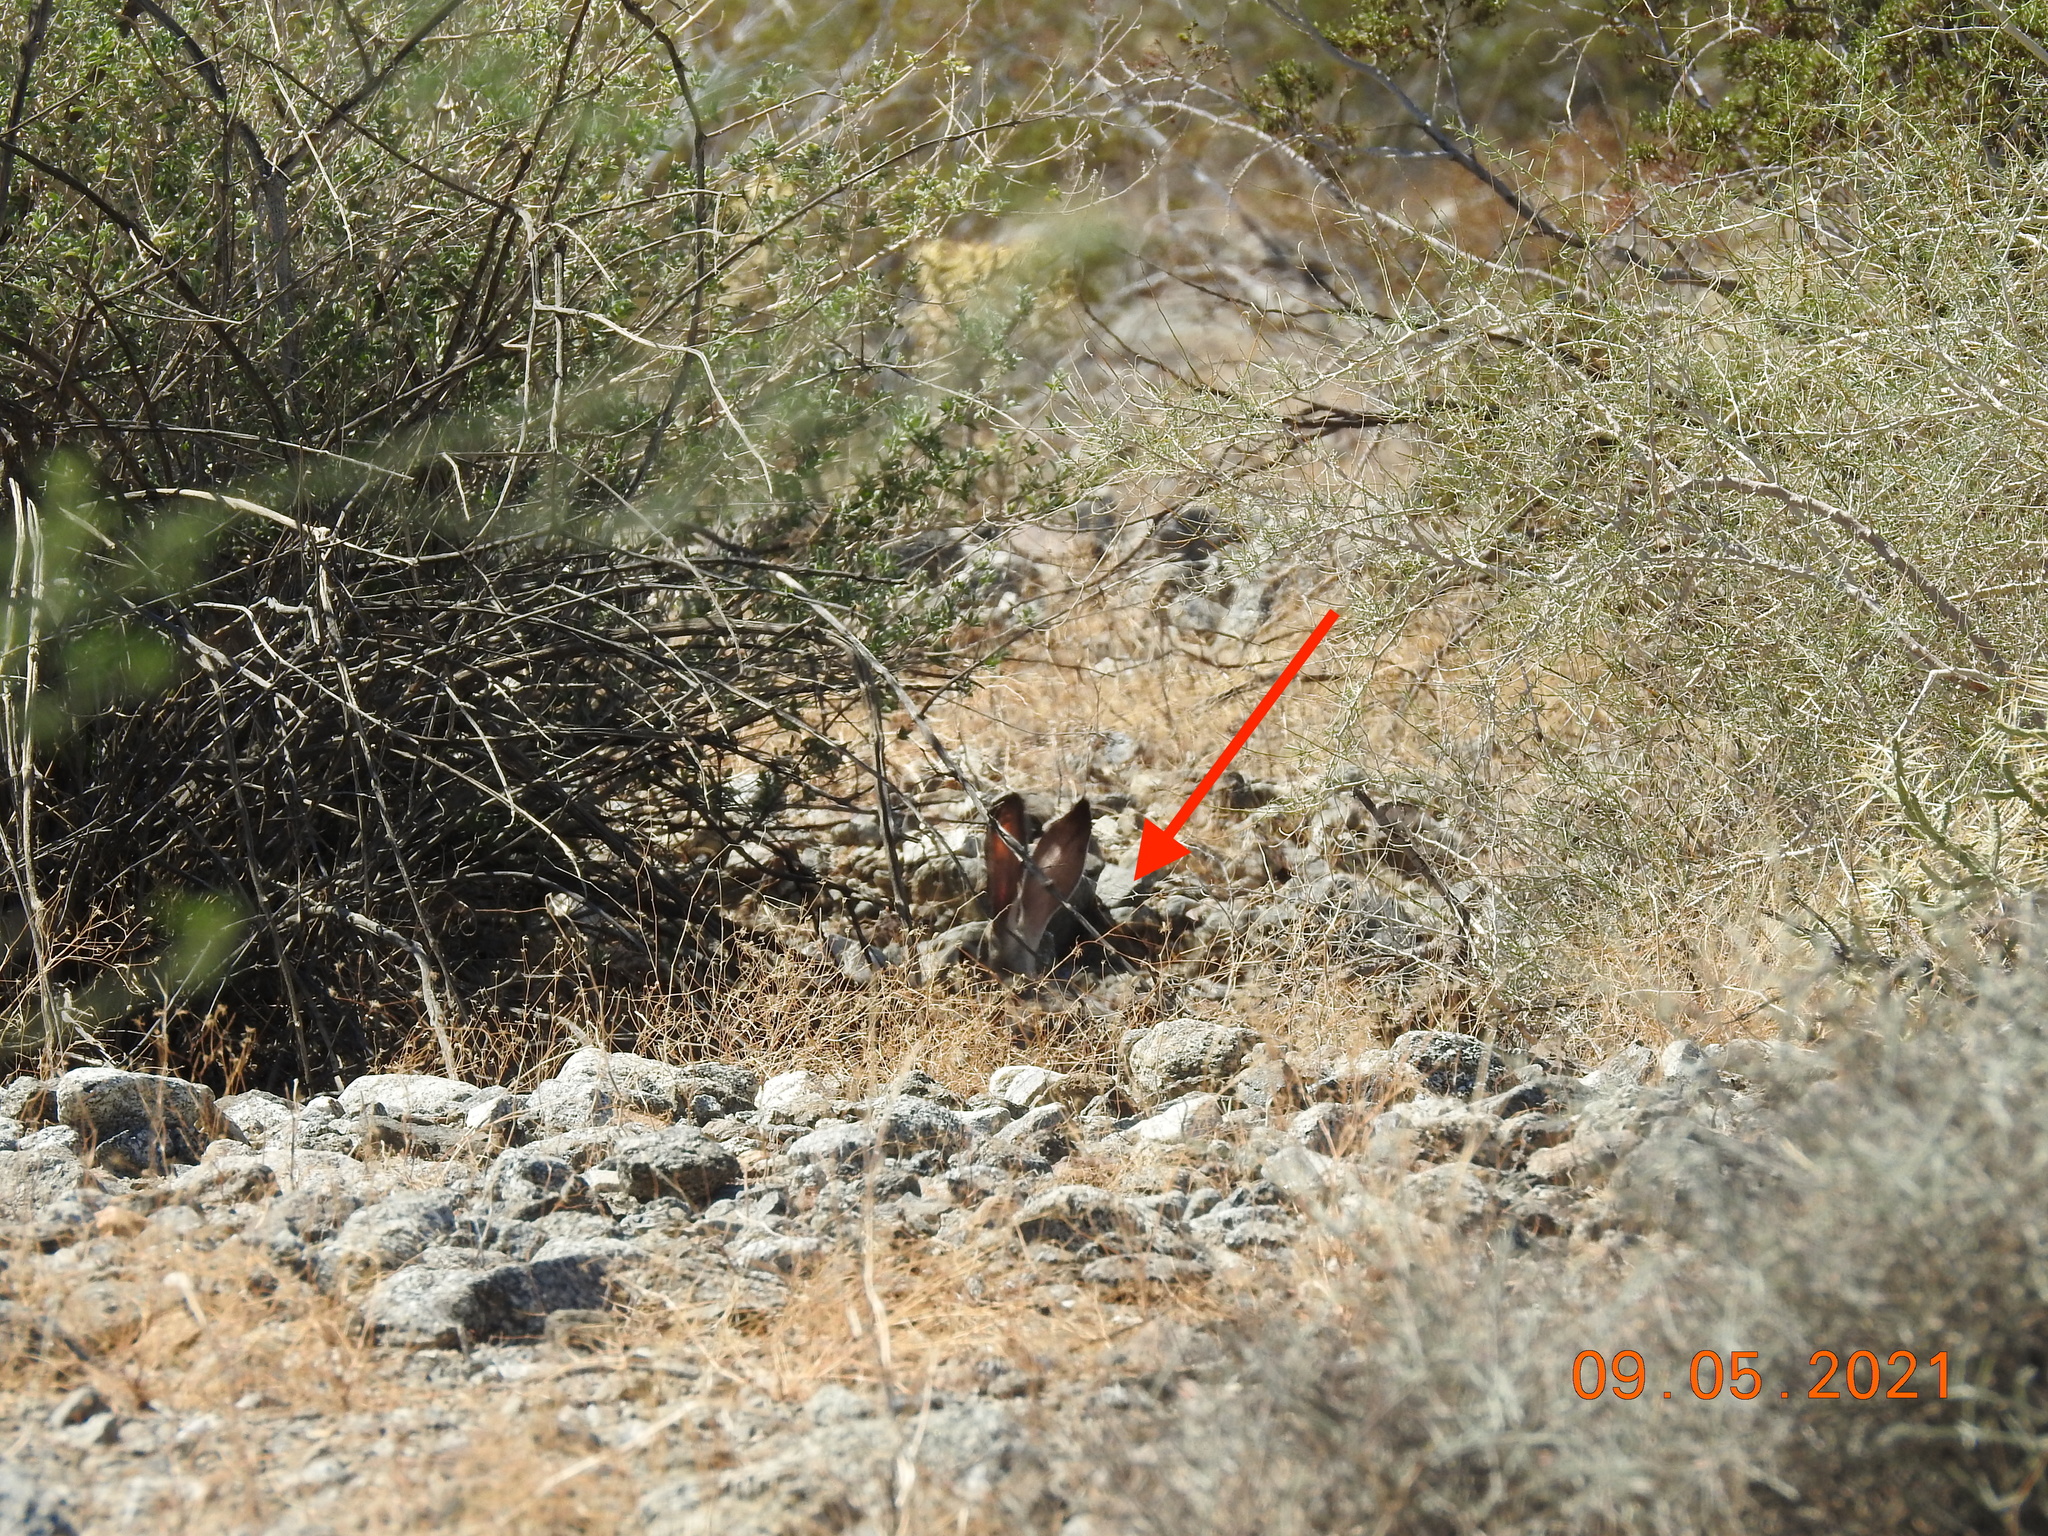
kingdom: Animalia
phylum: Chordata
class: Mammalia
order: Lagomorpha
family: Leporidae
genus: Lepus
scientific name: Lepus californicus
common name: Black-tailed jackrabbit
